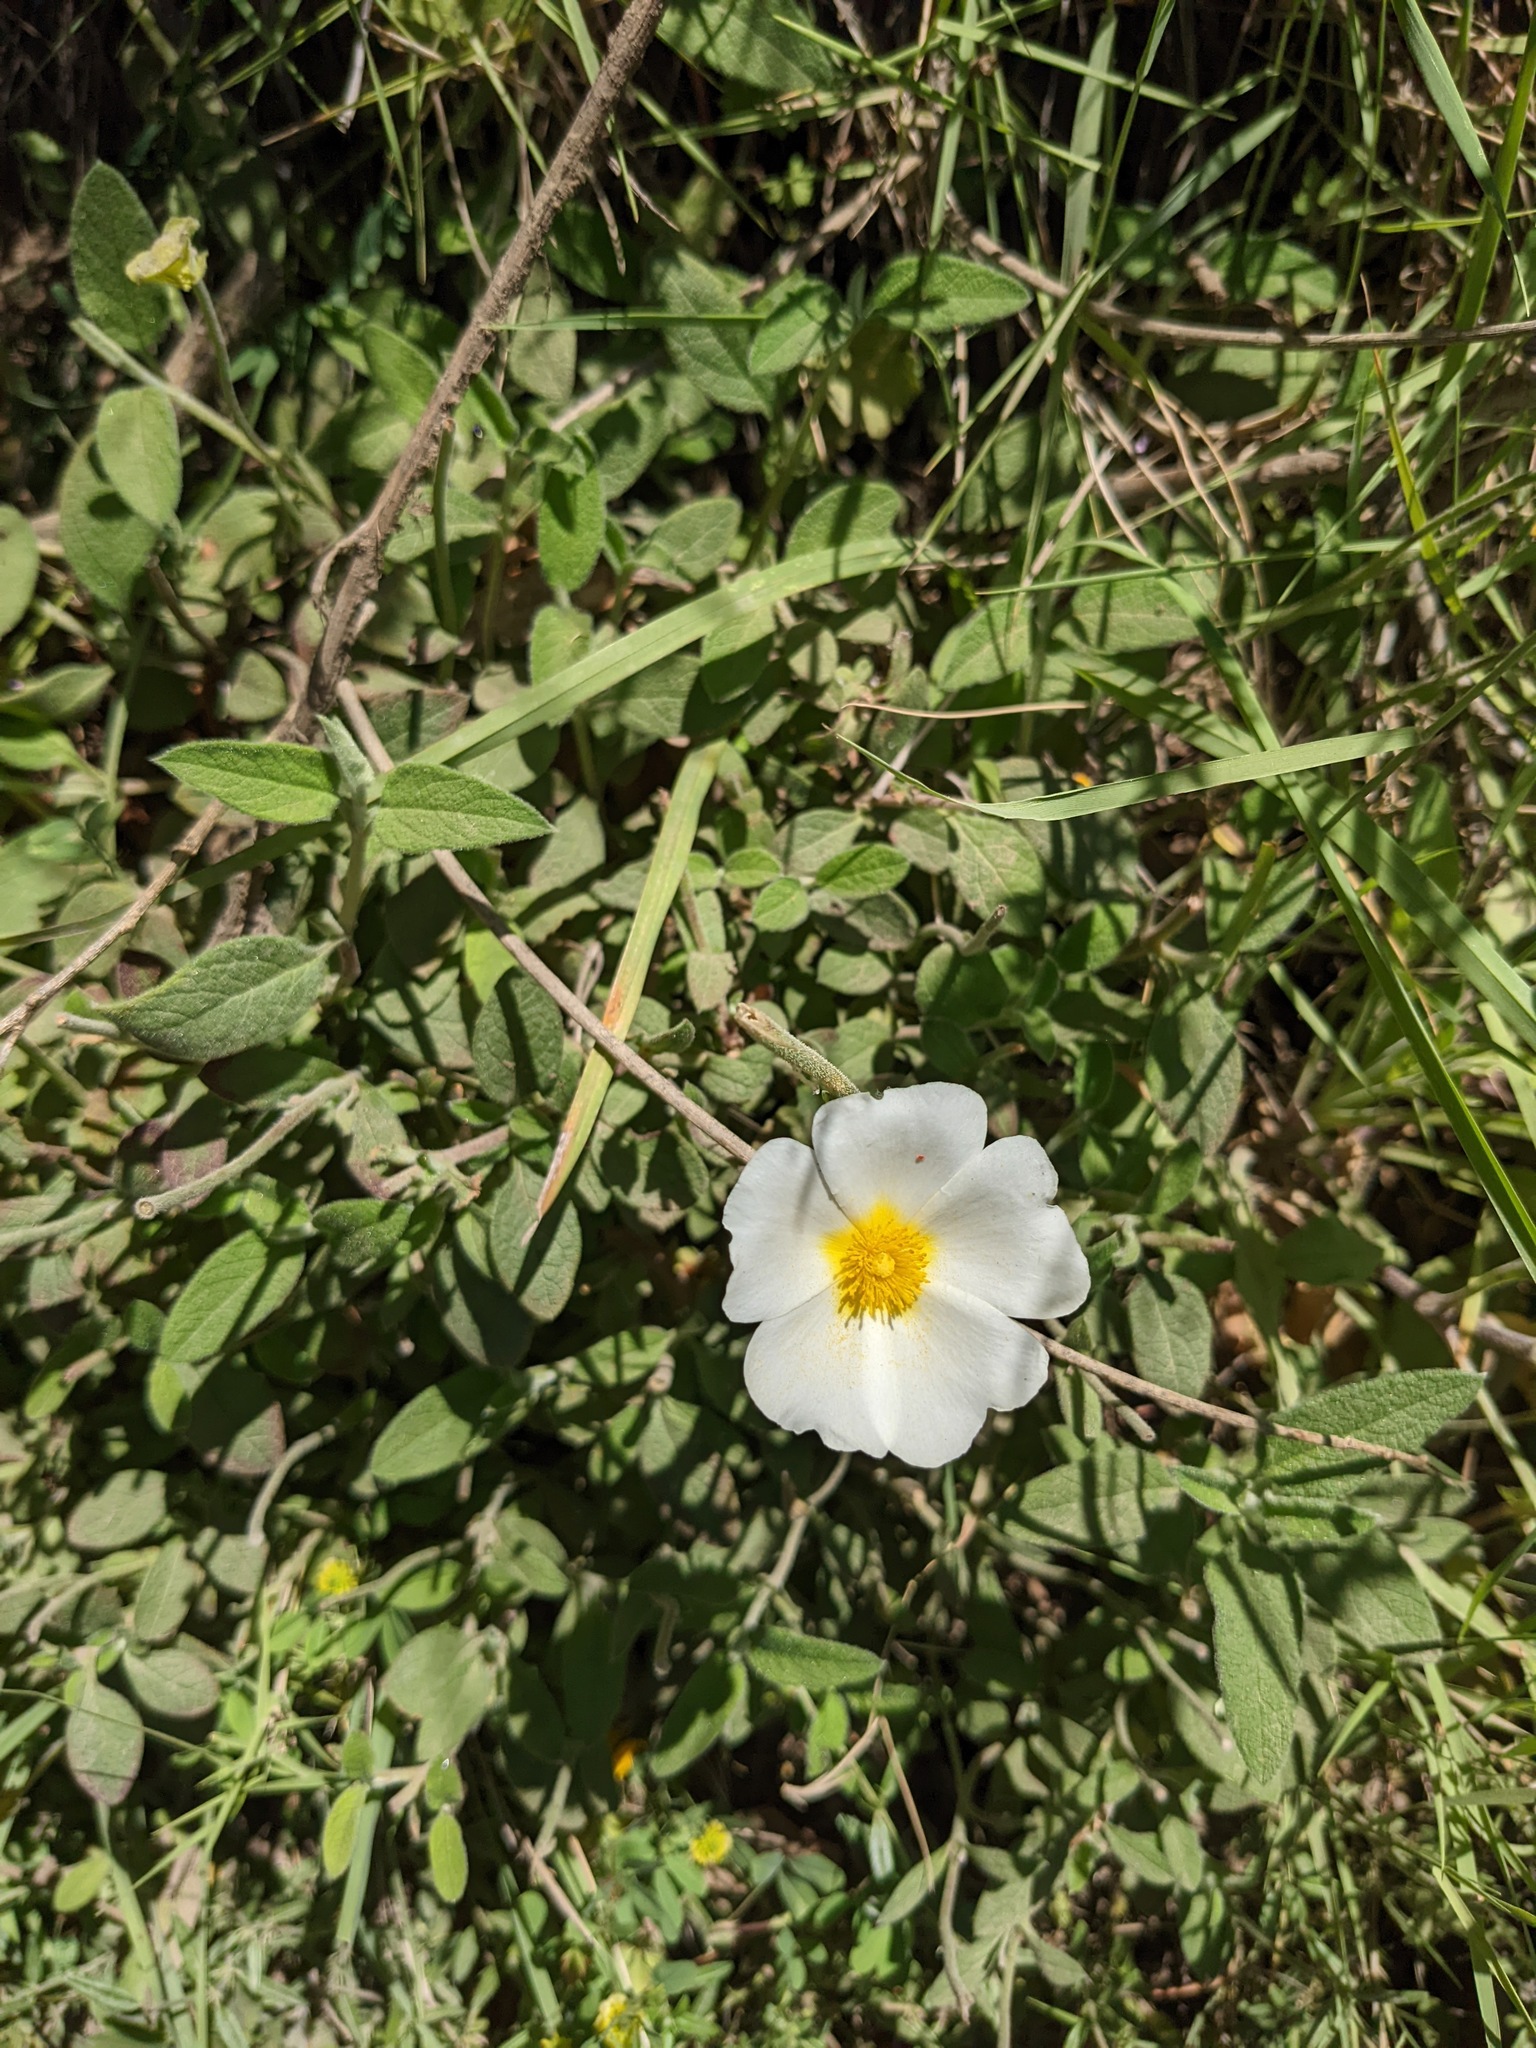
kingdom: Plantae
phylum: Tracheophyta
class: Magnoliopsida
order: Malvales
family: Cistaceae
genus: Cistus
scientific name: Cistus salviifolius
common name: Salvia cistus
